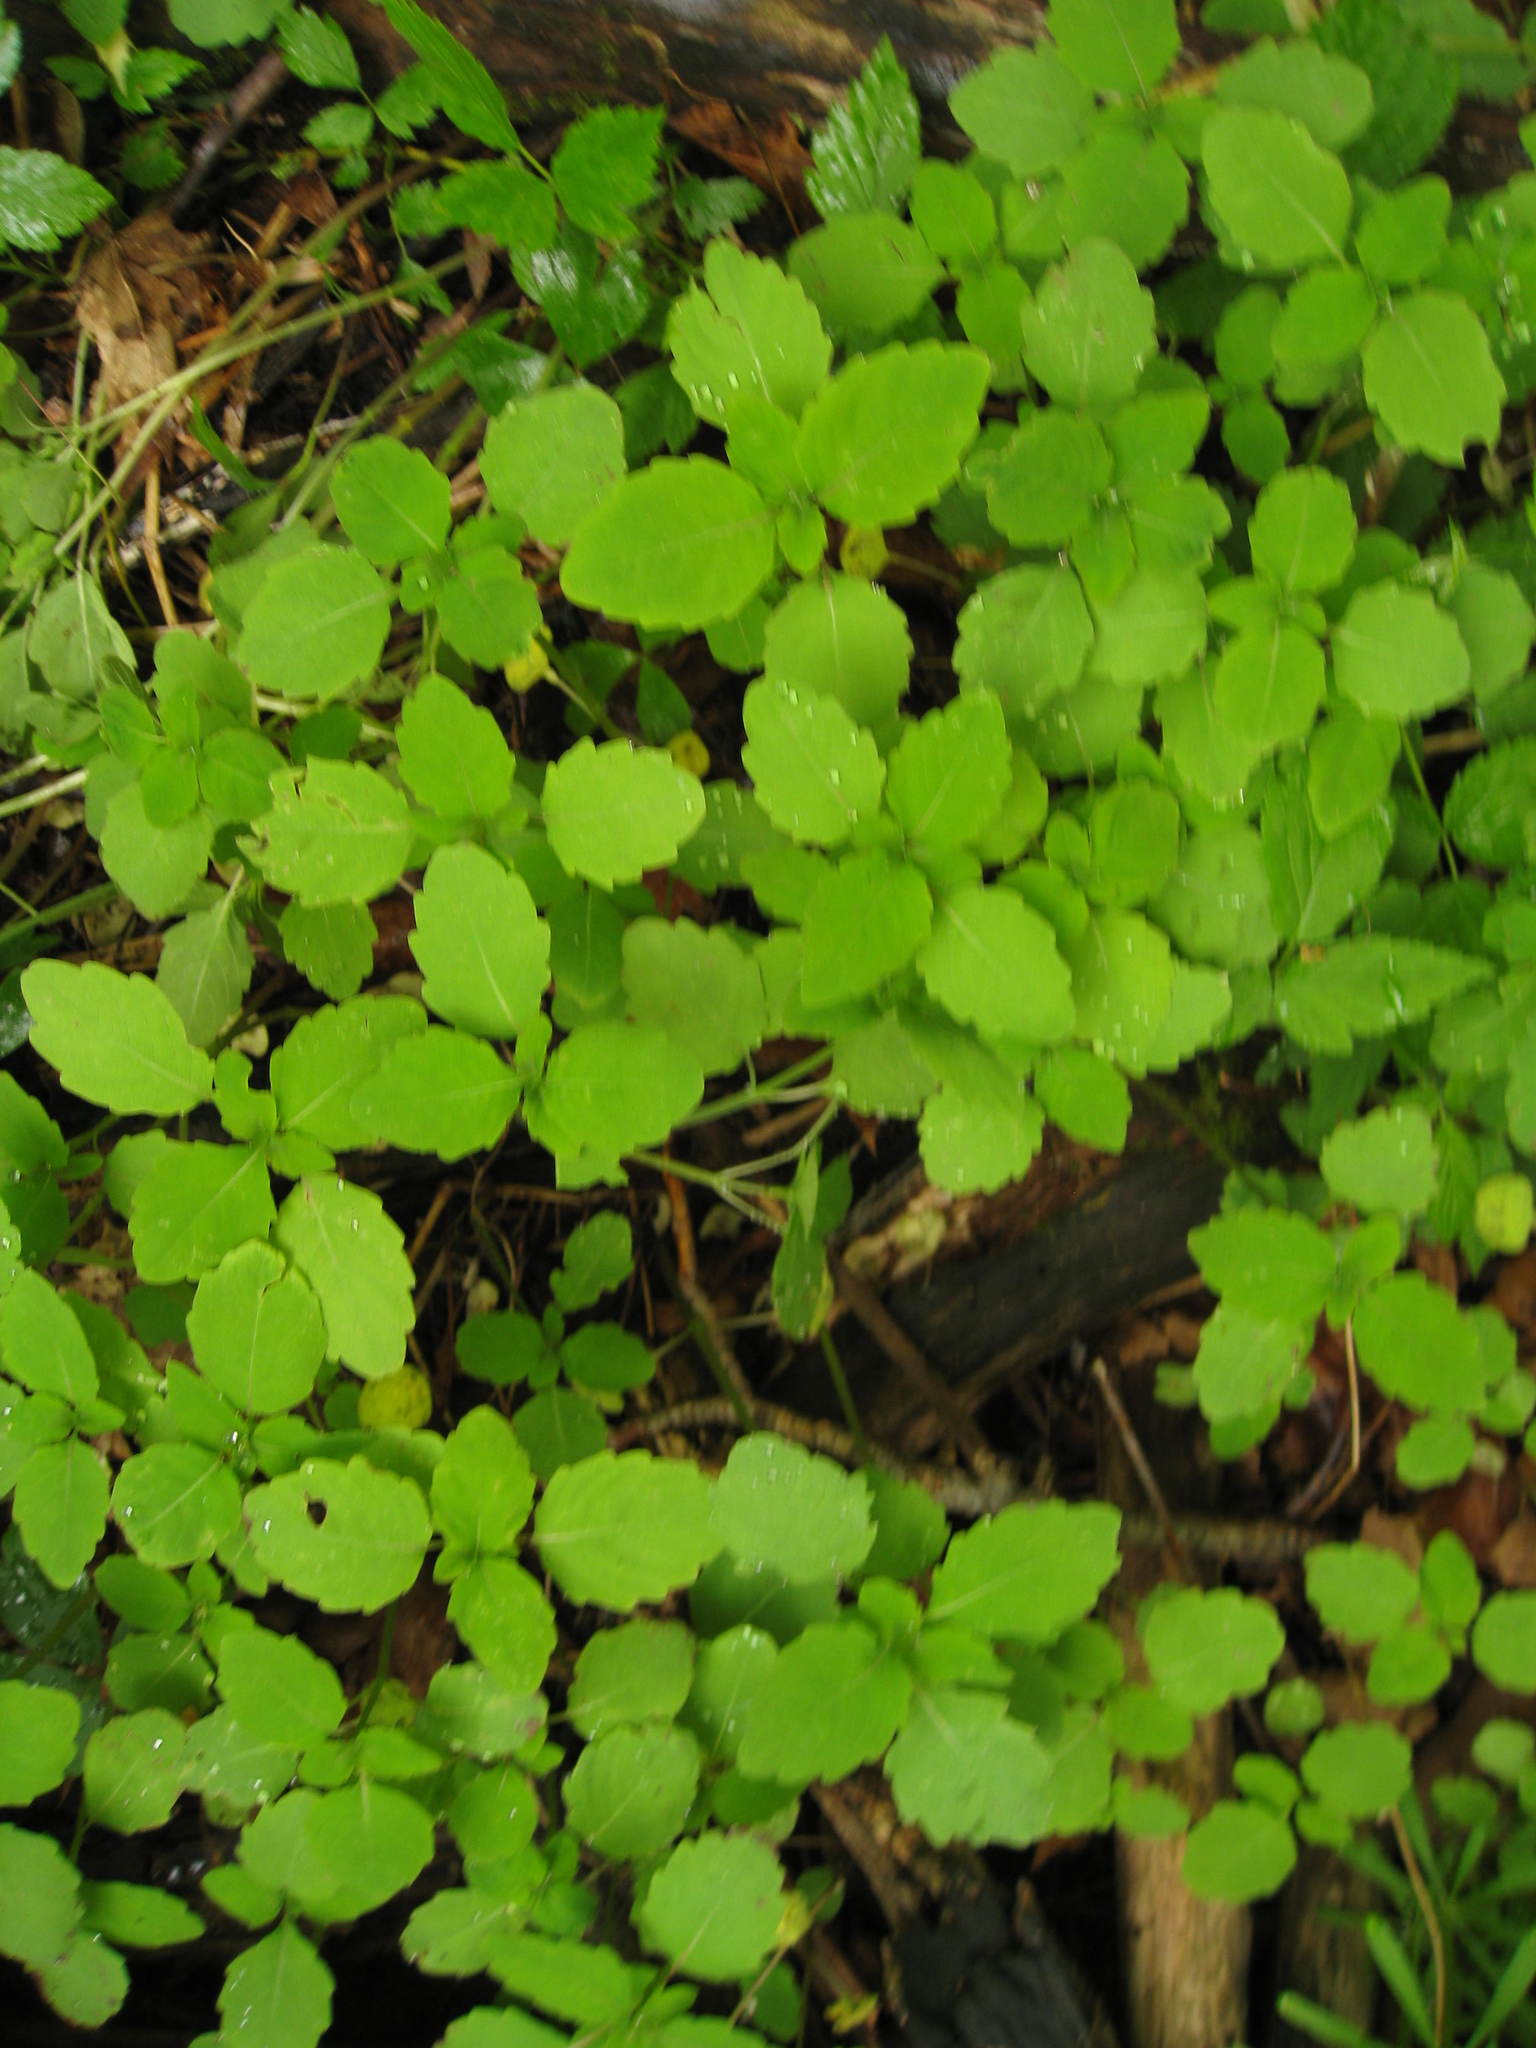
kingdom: Plantae
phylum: Tracheophyta
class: Magnoliopsida
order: Ericales
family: Balsaminaceae
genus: Impatiens
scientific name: Impatiens capensis
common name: Orange balsam
